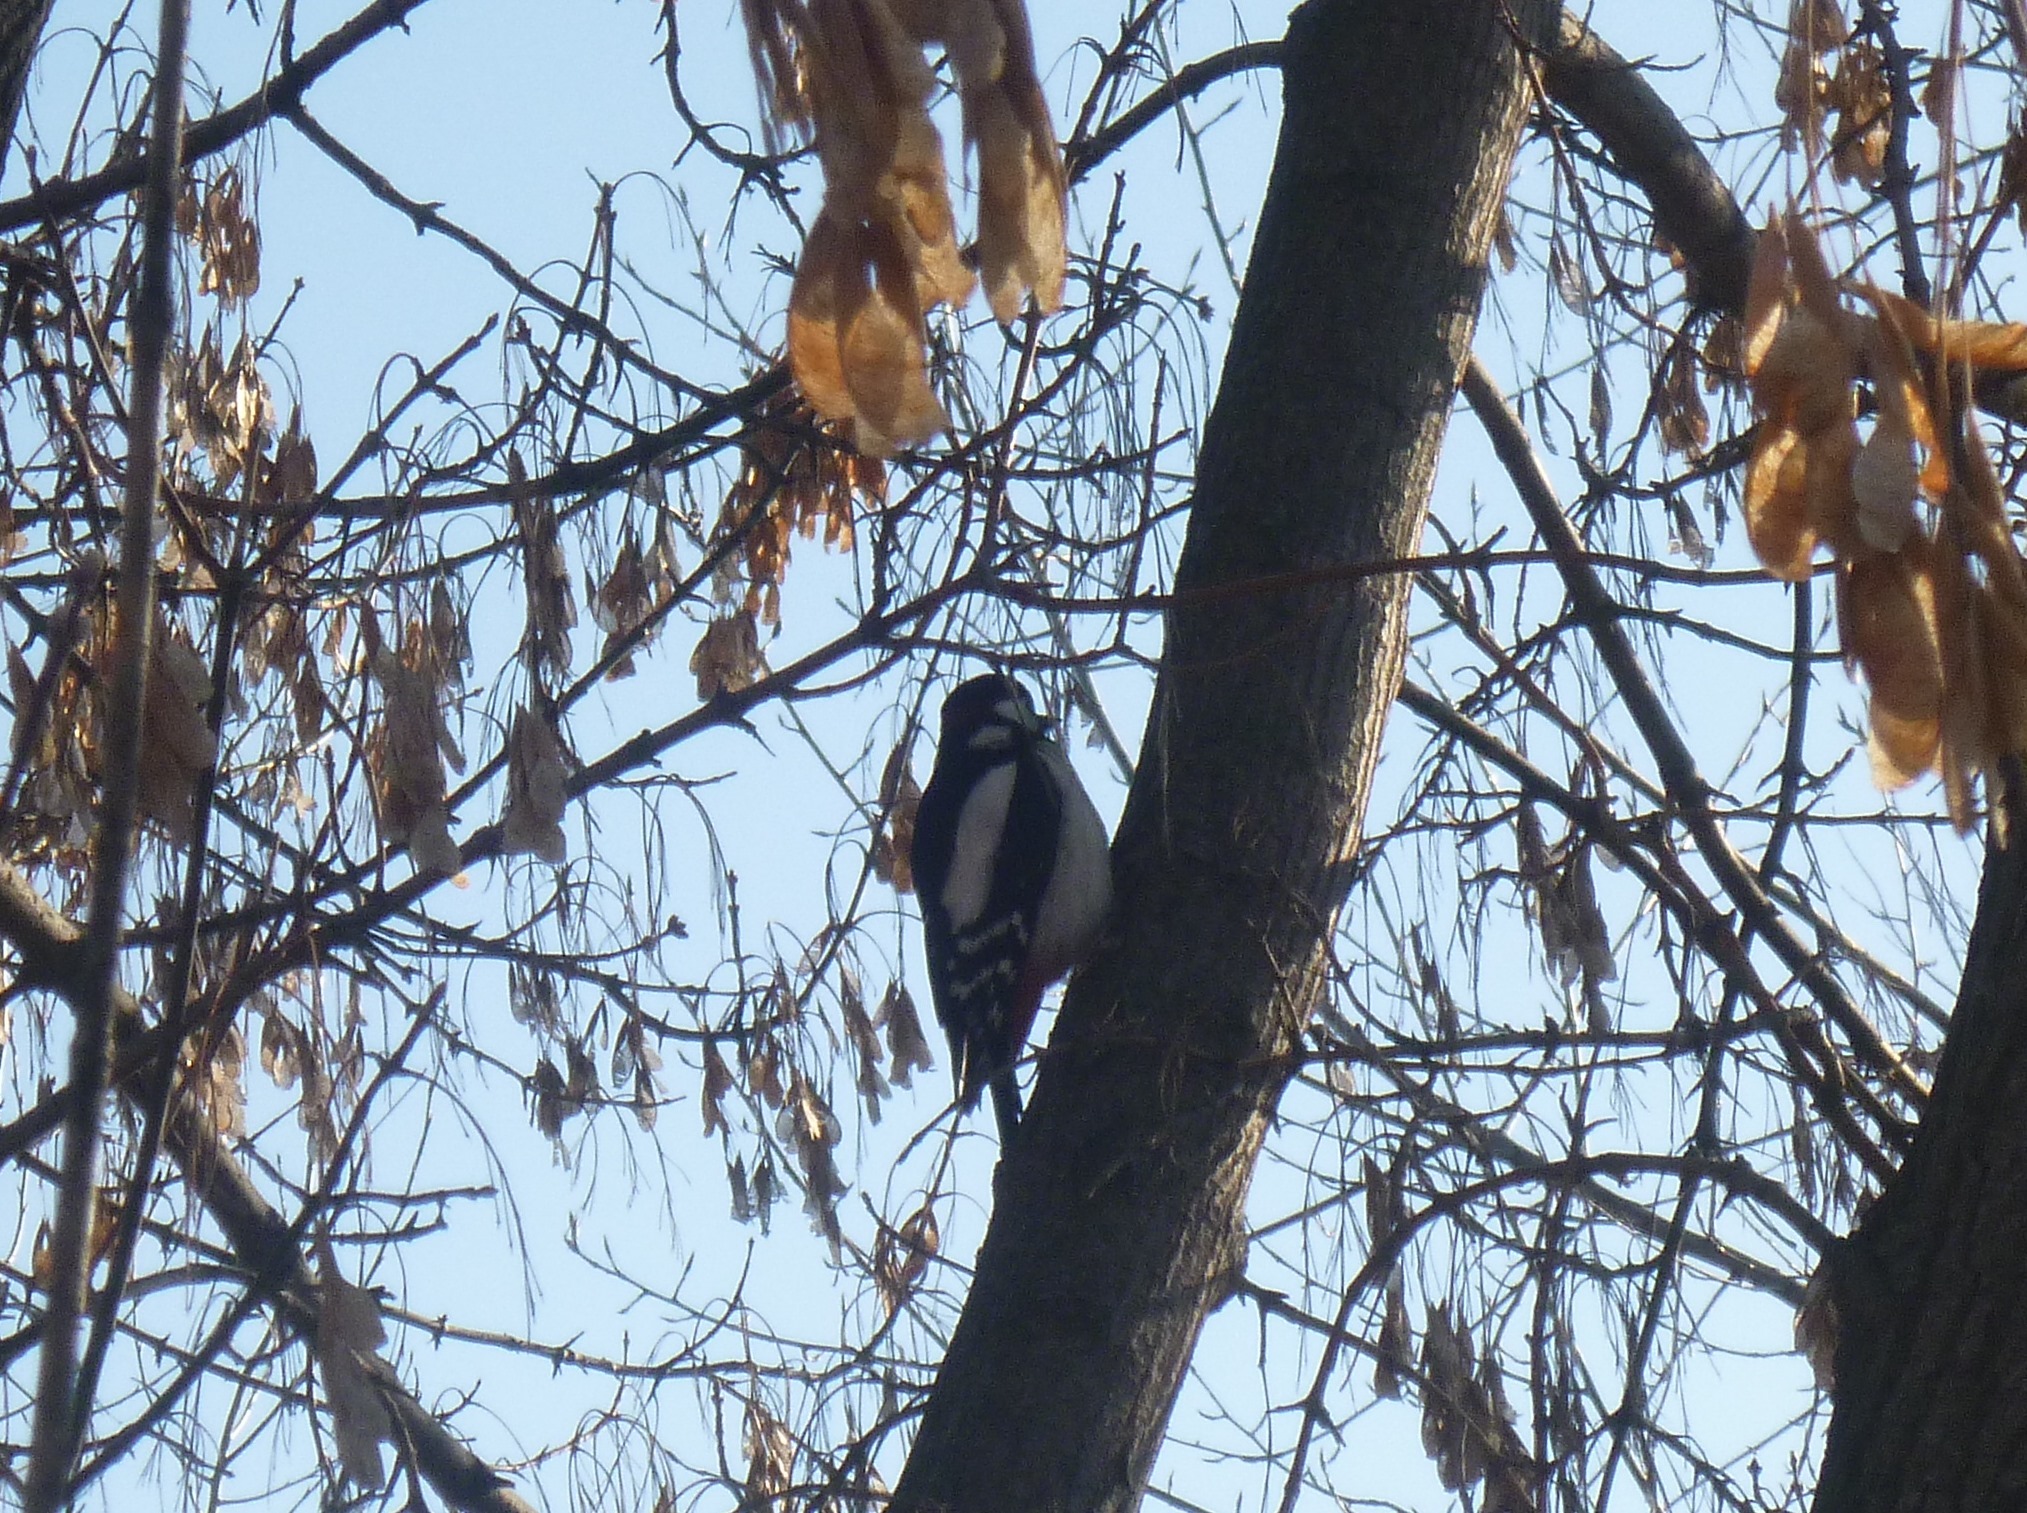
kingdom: Animalia
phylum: Chordata
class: Aves
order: Piciformes
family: Picidae
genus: Dendrocopos
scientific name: Dendrocopos major
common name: Great spotted woodpecker
